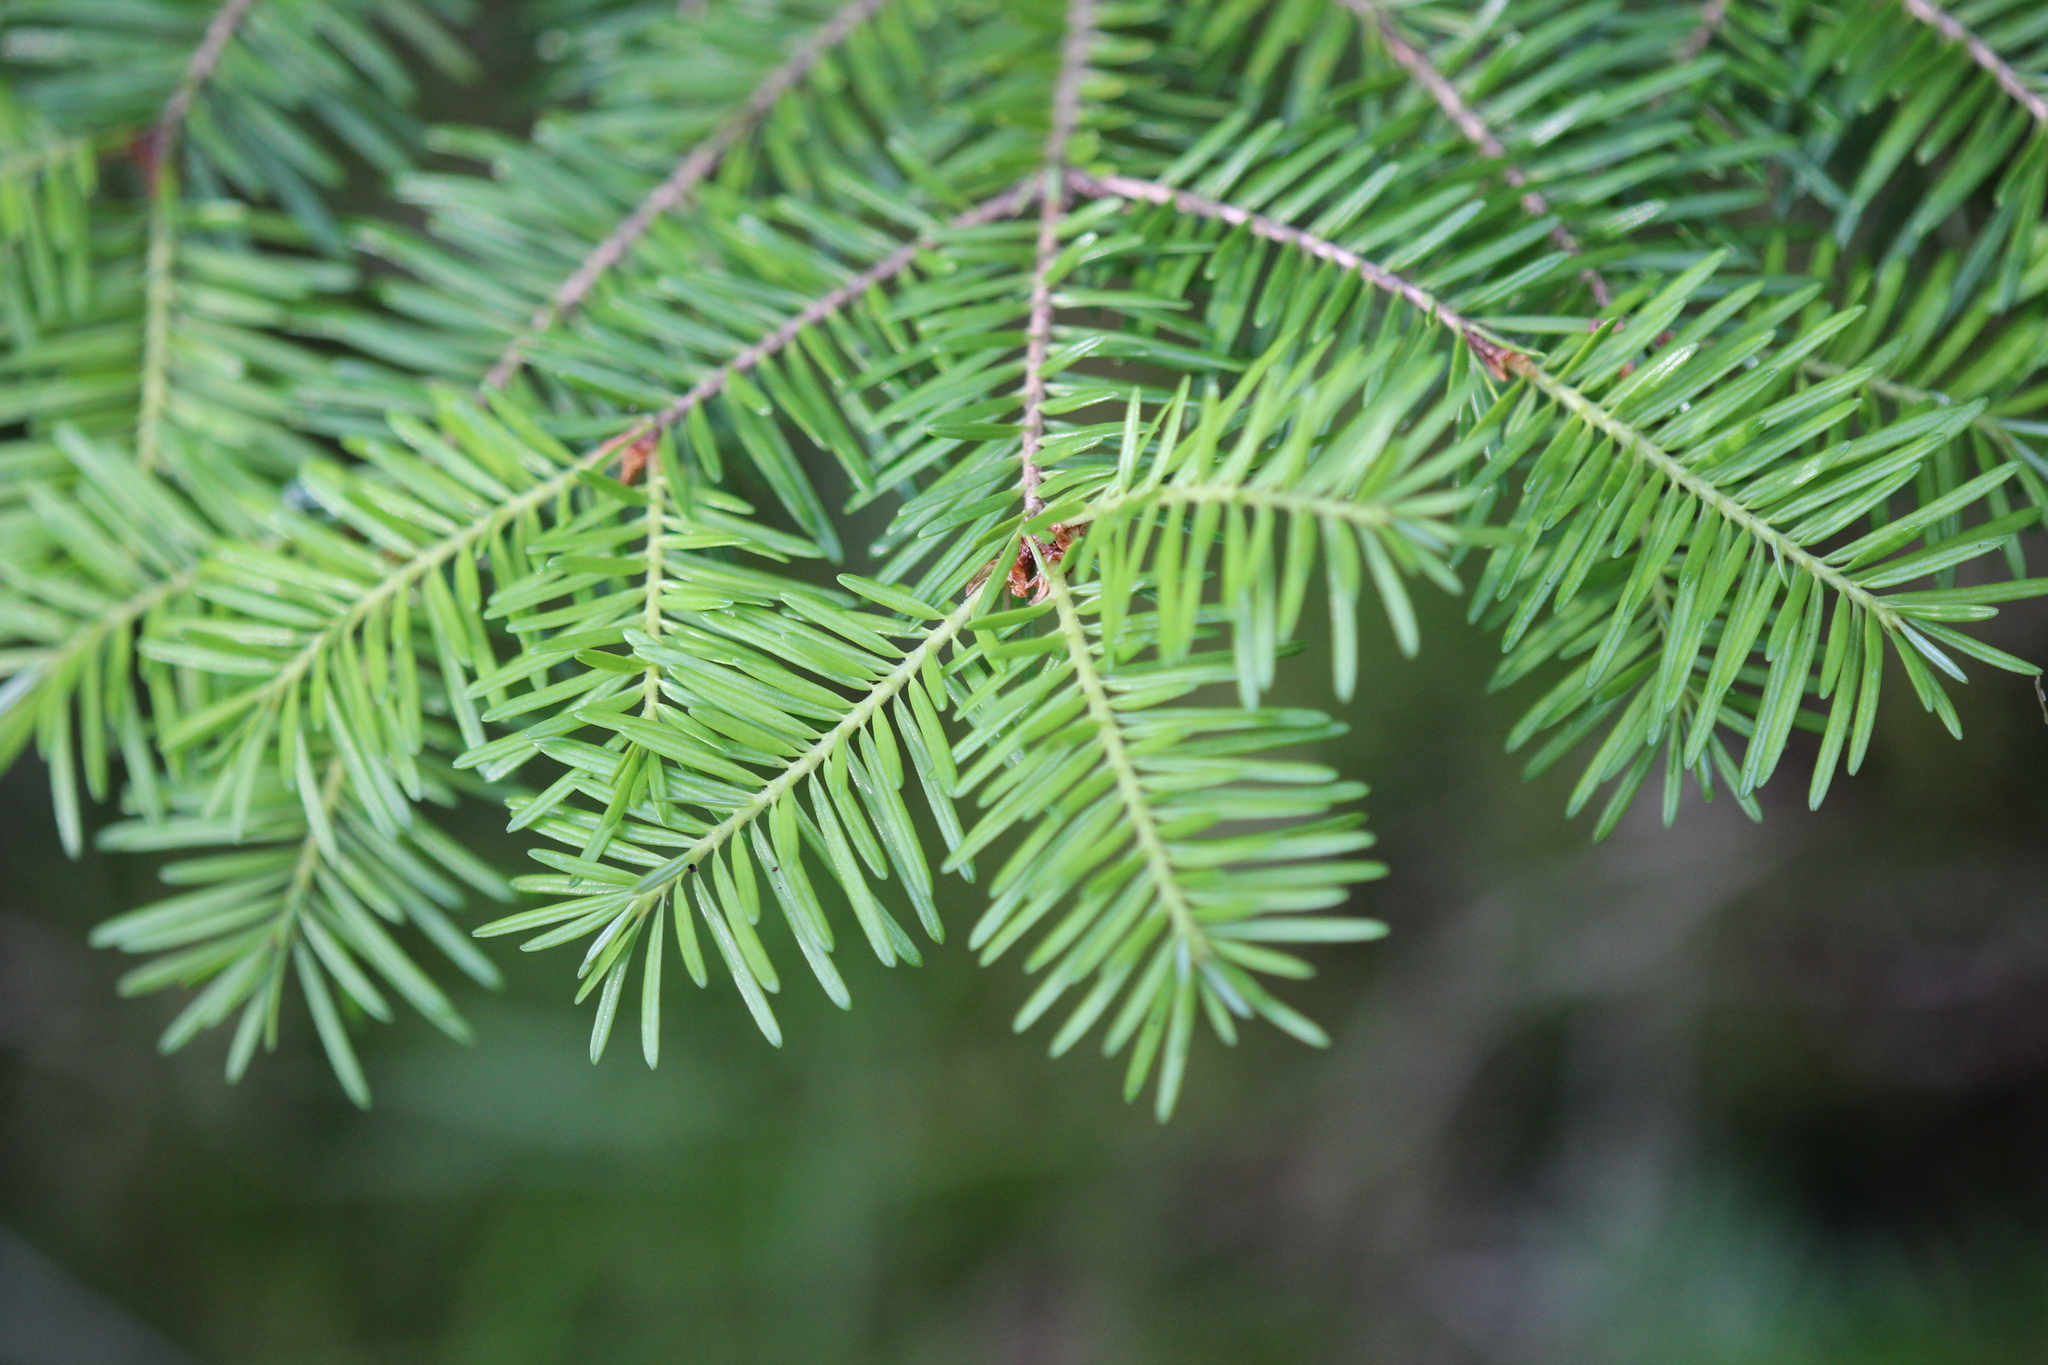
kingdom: Plantae
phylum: Tracheophyta
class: Pinopsida
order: Pinales
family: Pinaceae
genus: Abies
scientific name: Abies balsamea
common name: Balsam fir
